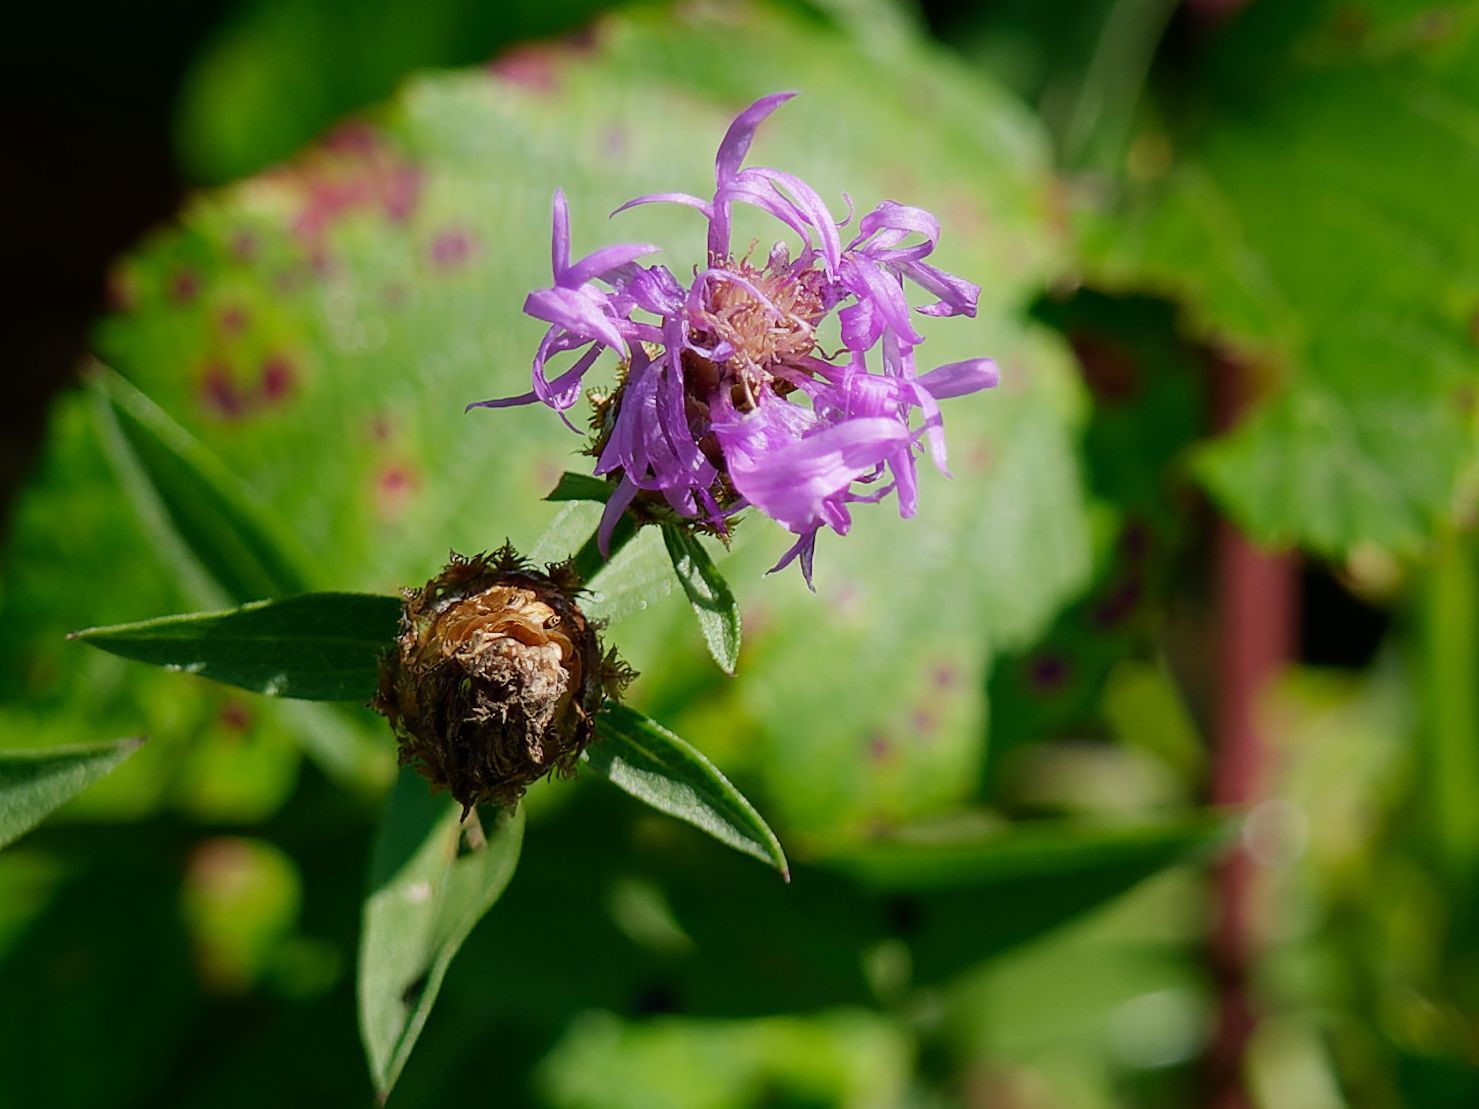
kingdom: Plantae
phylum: Tracheophyta
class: Magnoliopsida
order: Asterales
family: Asteraceae
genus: Centaurea
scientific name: Centaurea nigrescens
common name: Tyrol knapweed
